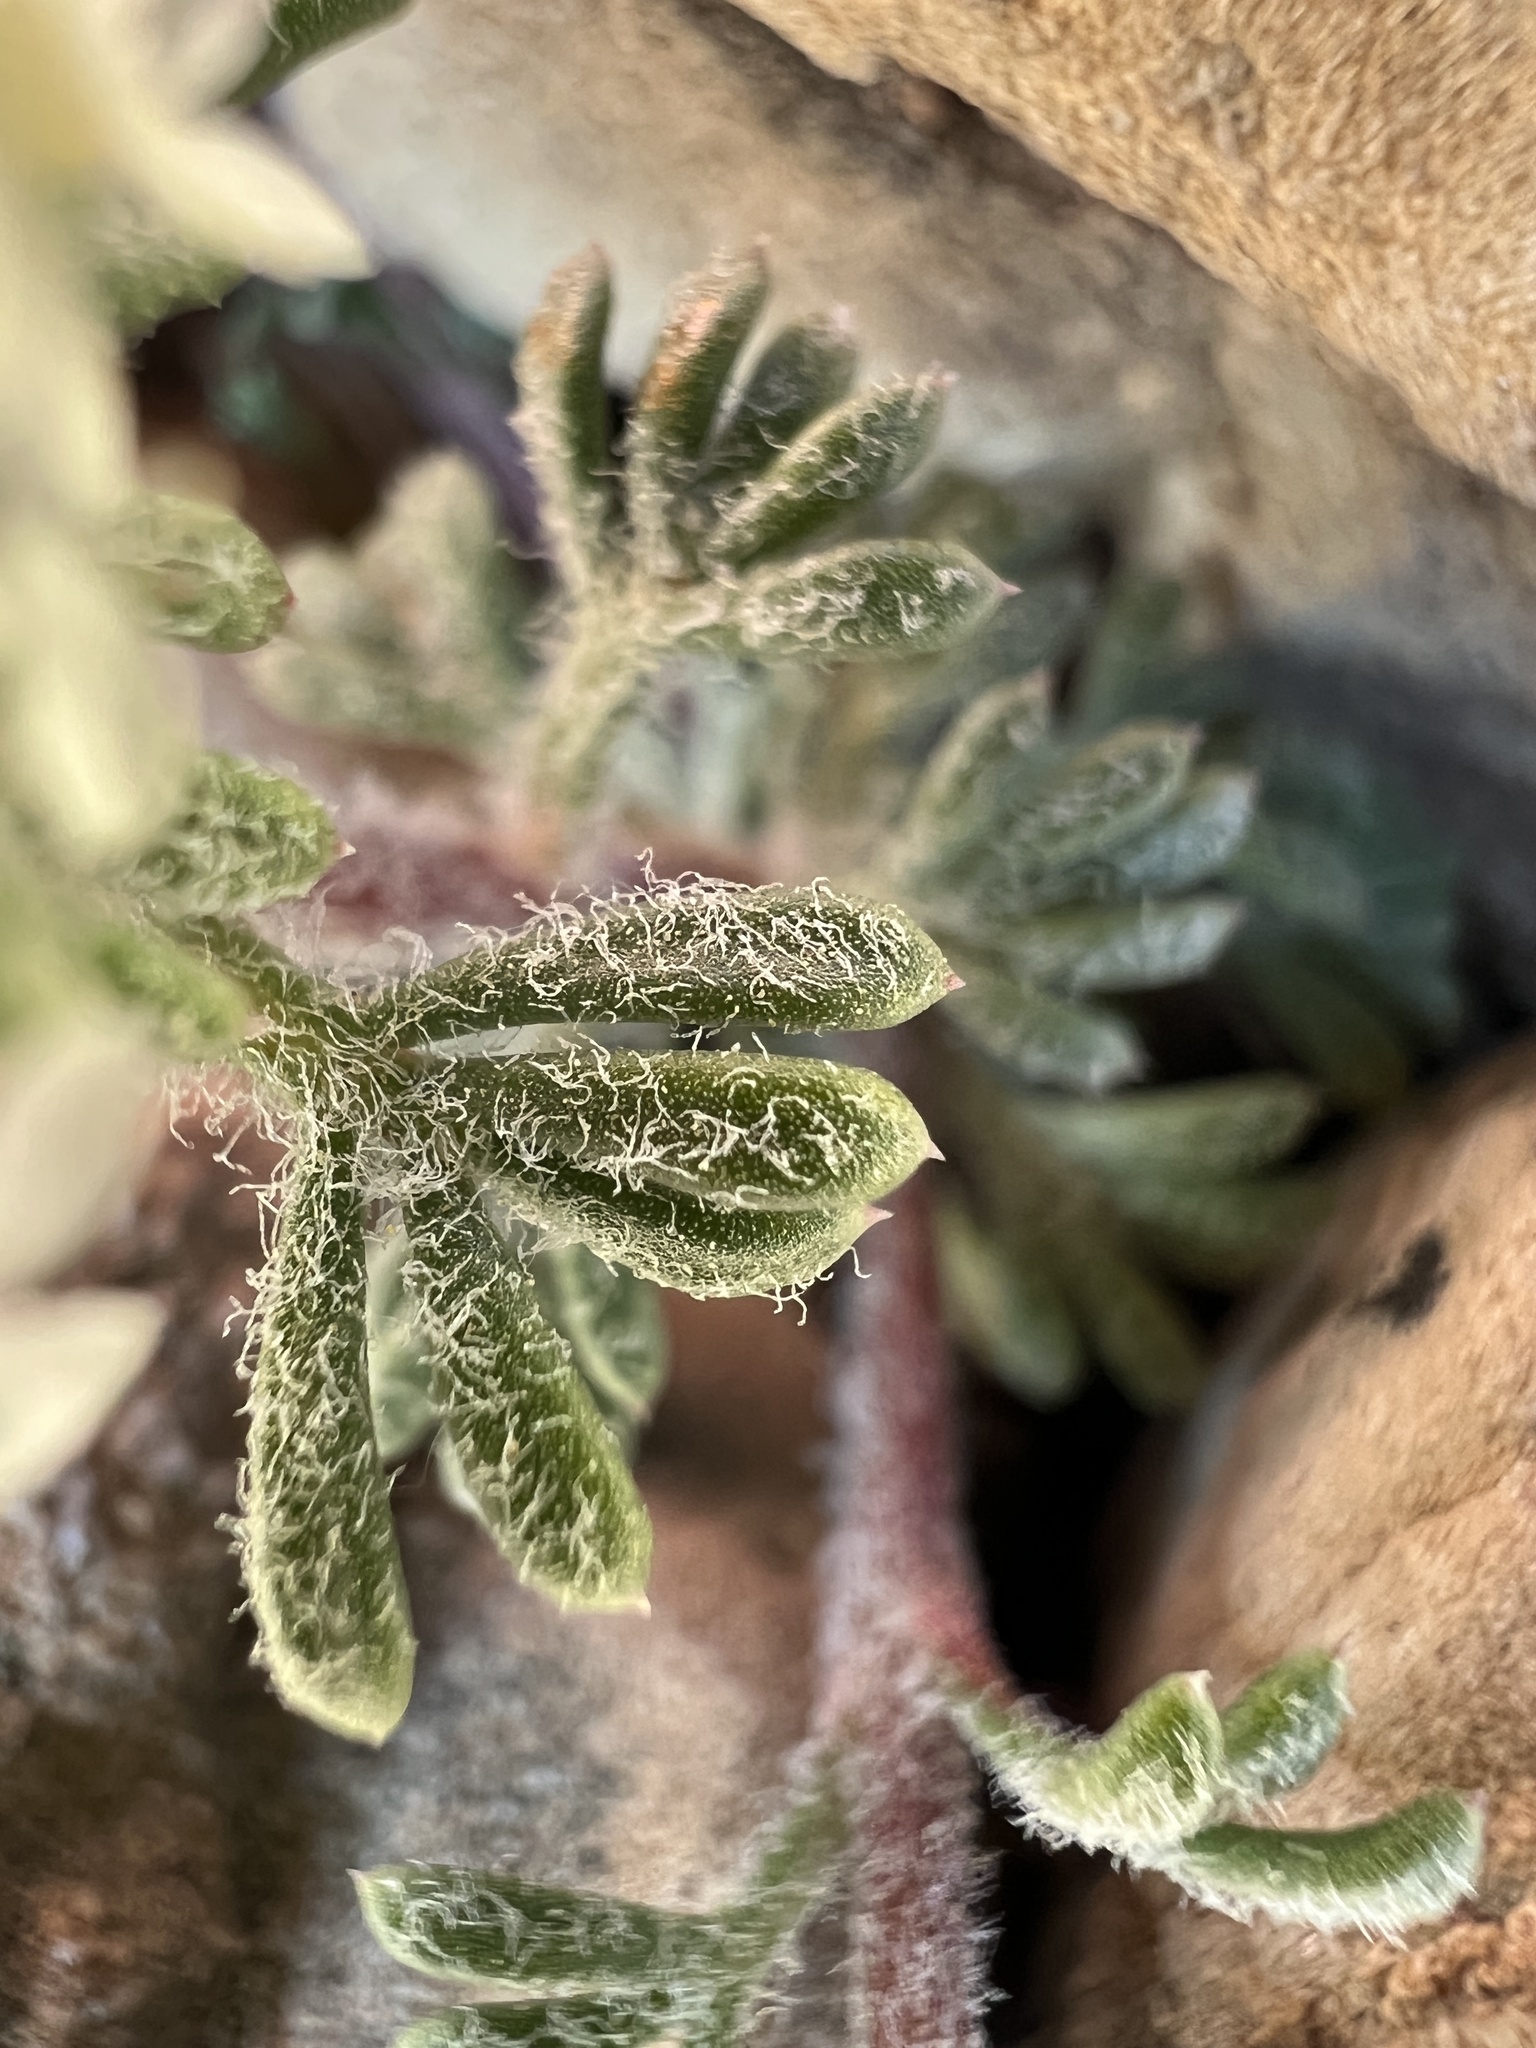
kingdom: Plantae
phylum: Tracheophyta
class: Magnoliopsida
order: Ericales
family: Polemoniaceae
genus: Ipomopsis
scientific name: Ipomopsis congesta
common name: Ball-head gilia
